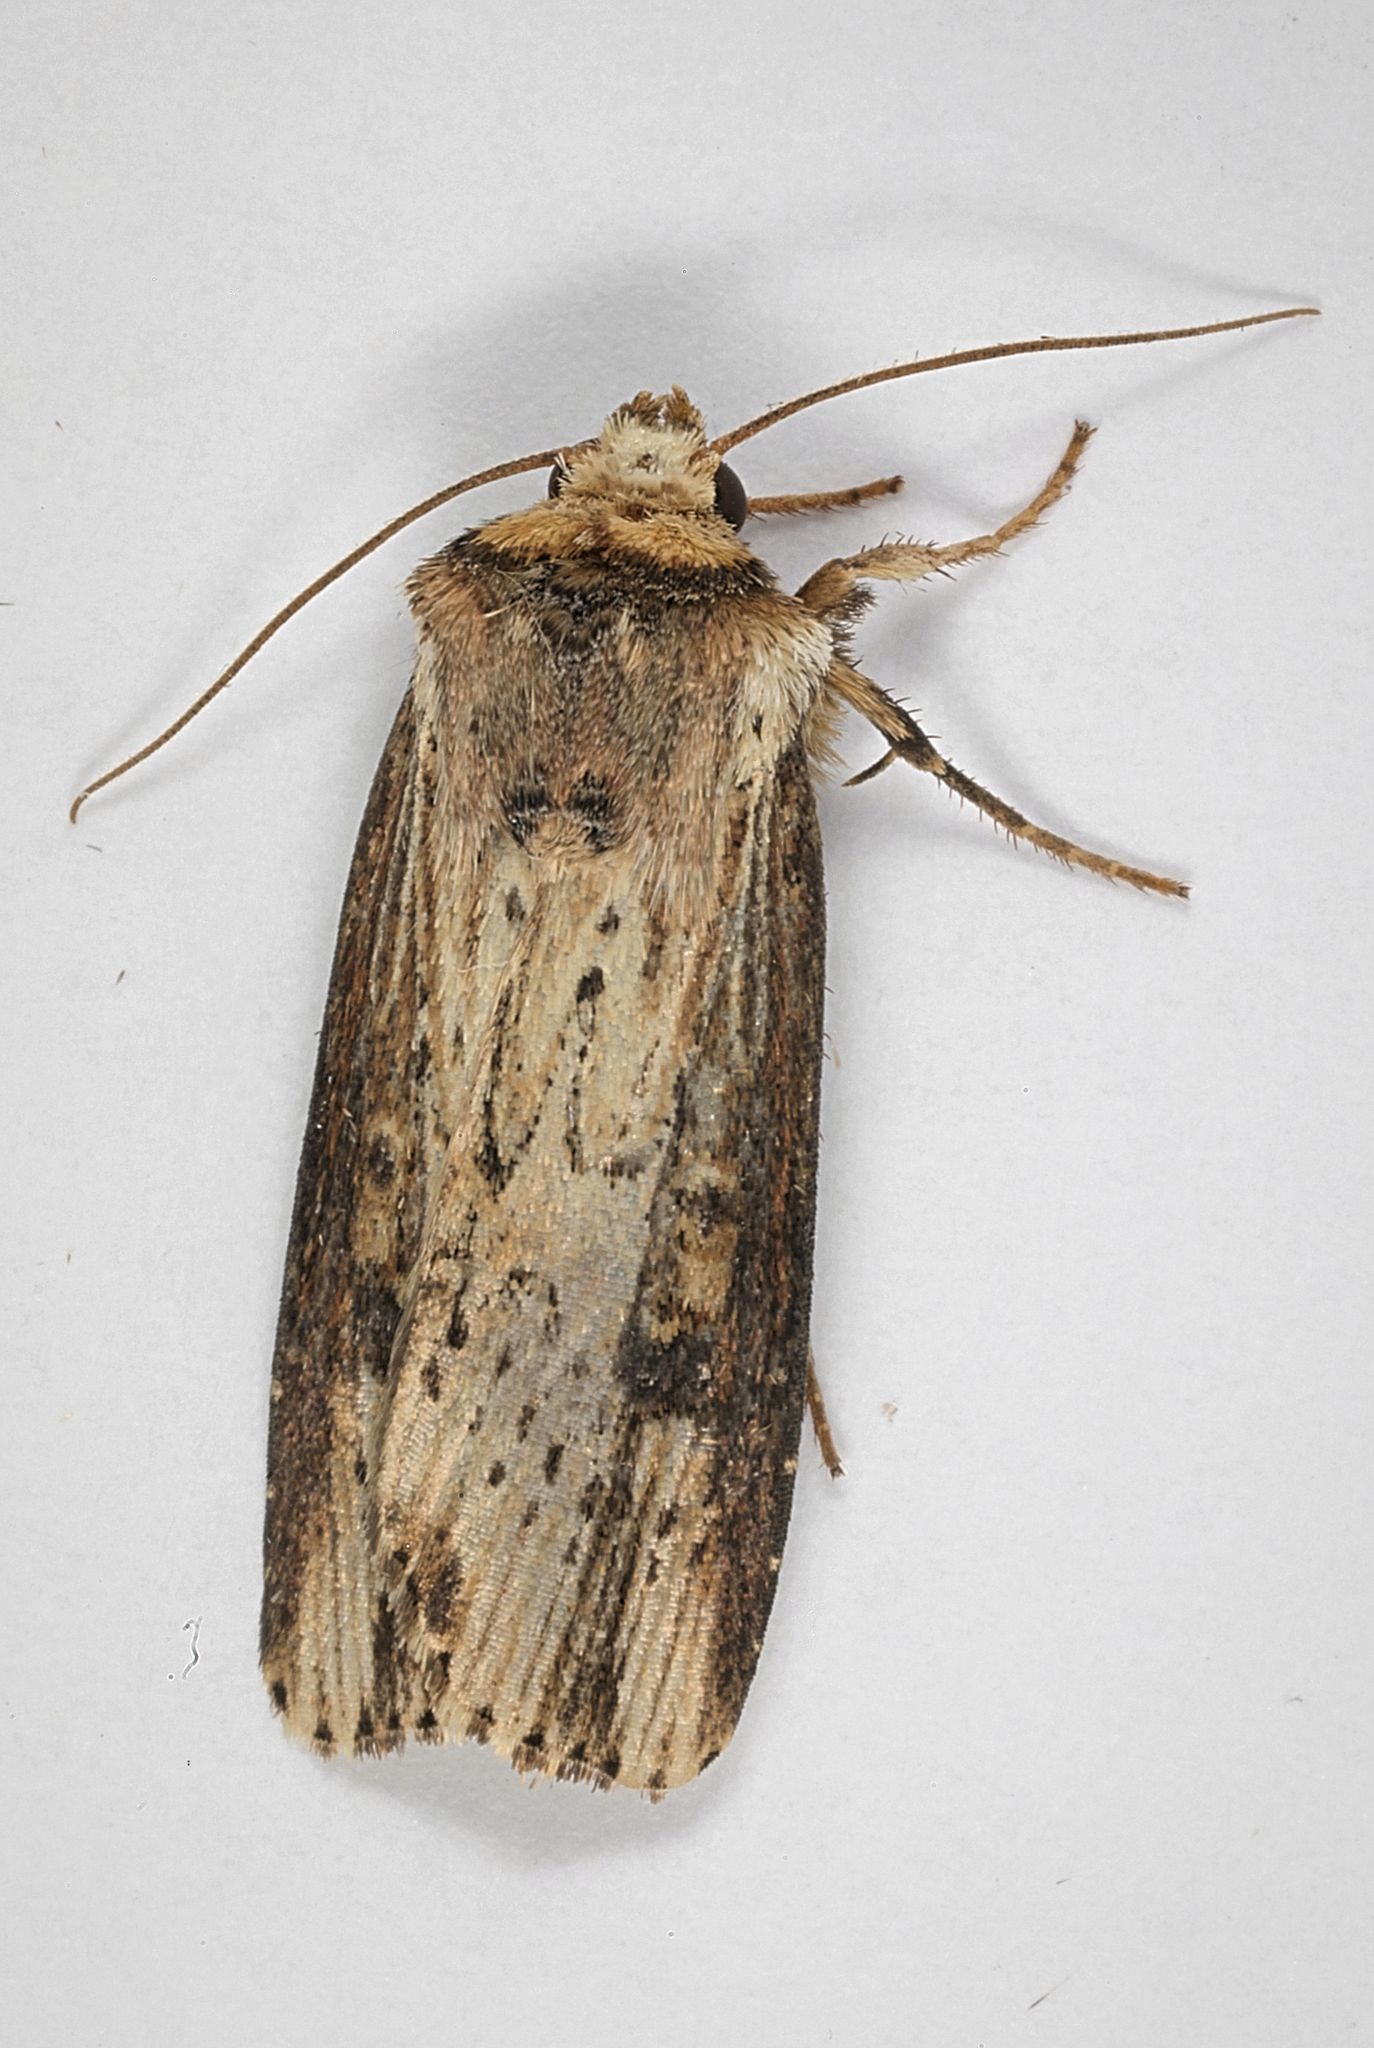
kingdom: Animalia
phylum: Arthropoda
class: Insecta
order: Lepidoptera
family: Noctuidae
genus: Axylia
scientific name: Axylia putris
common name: Flame
